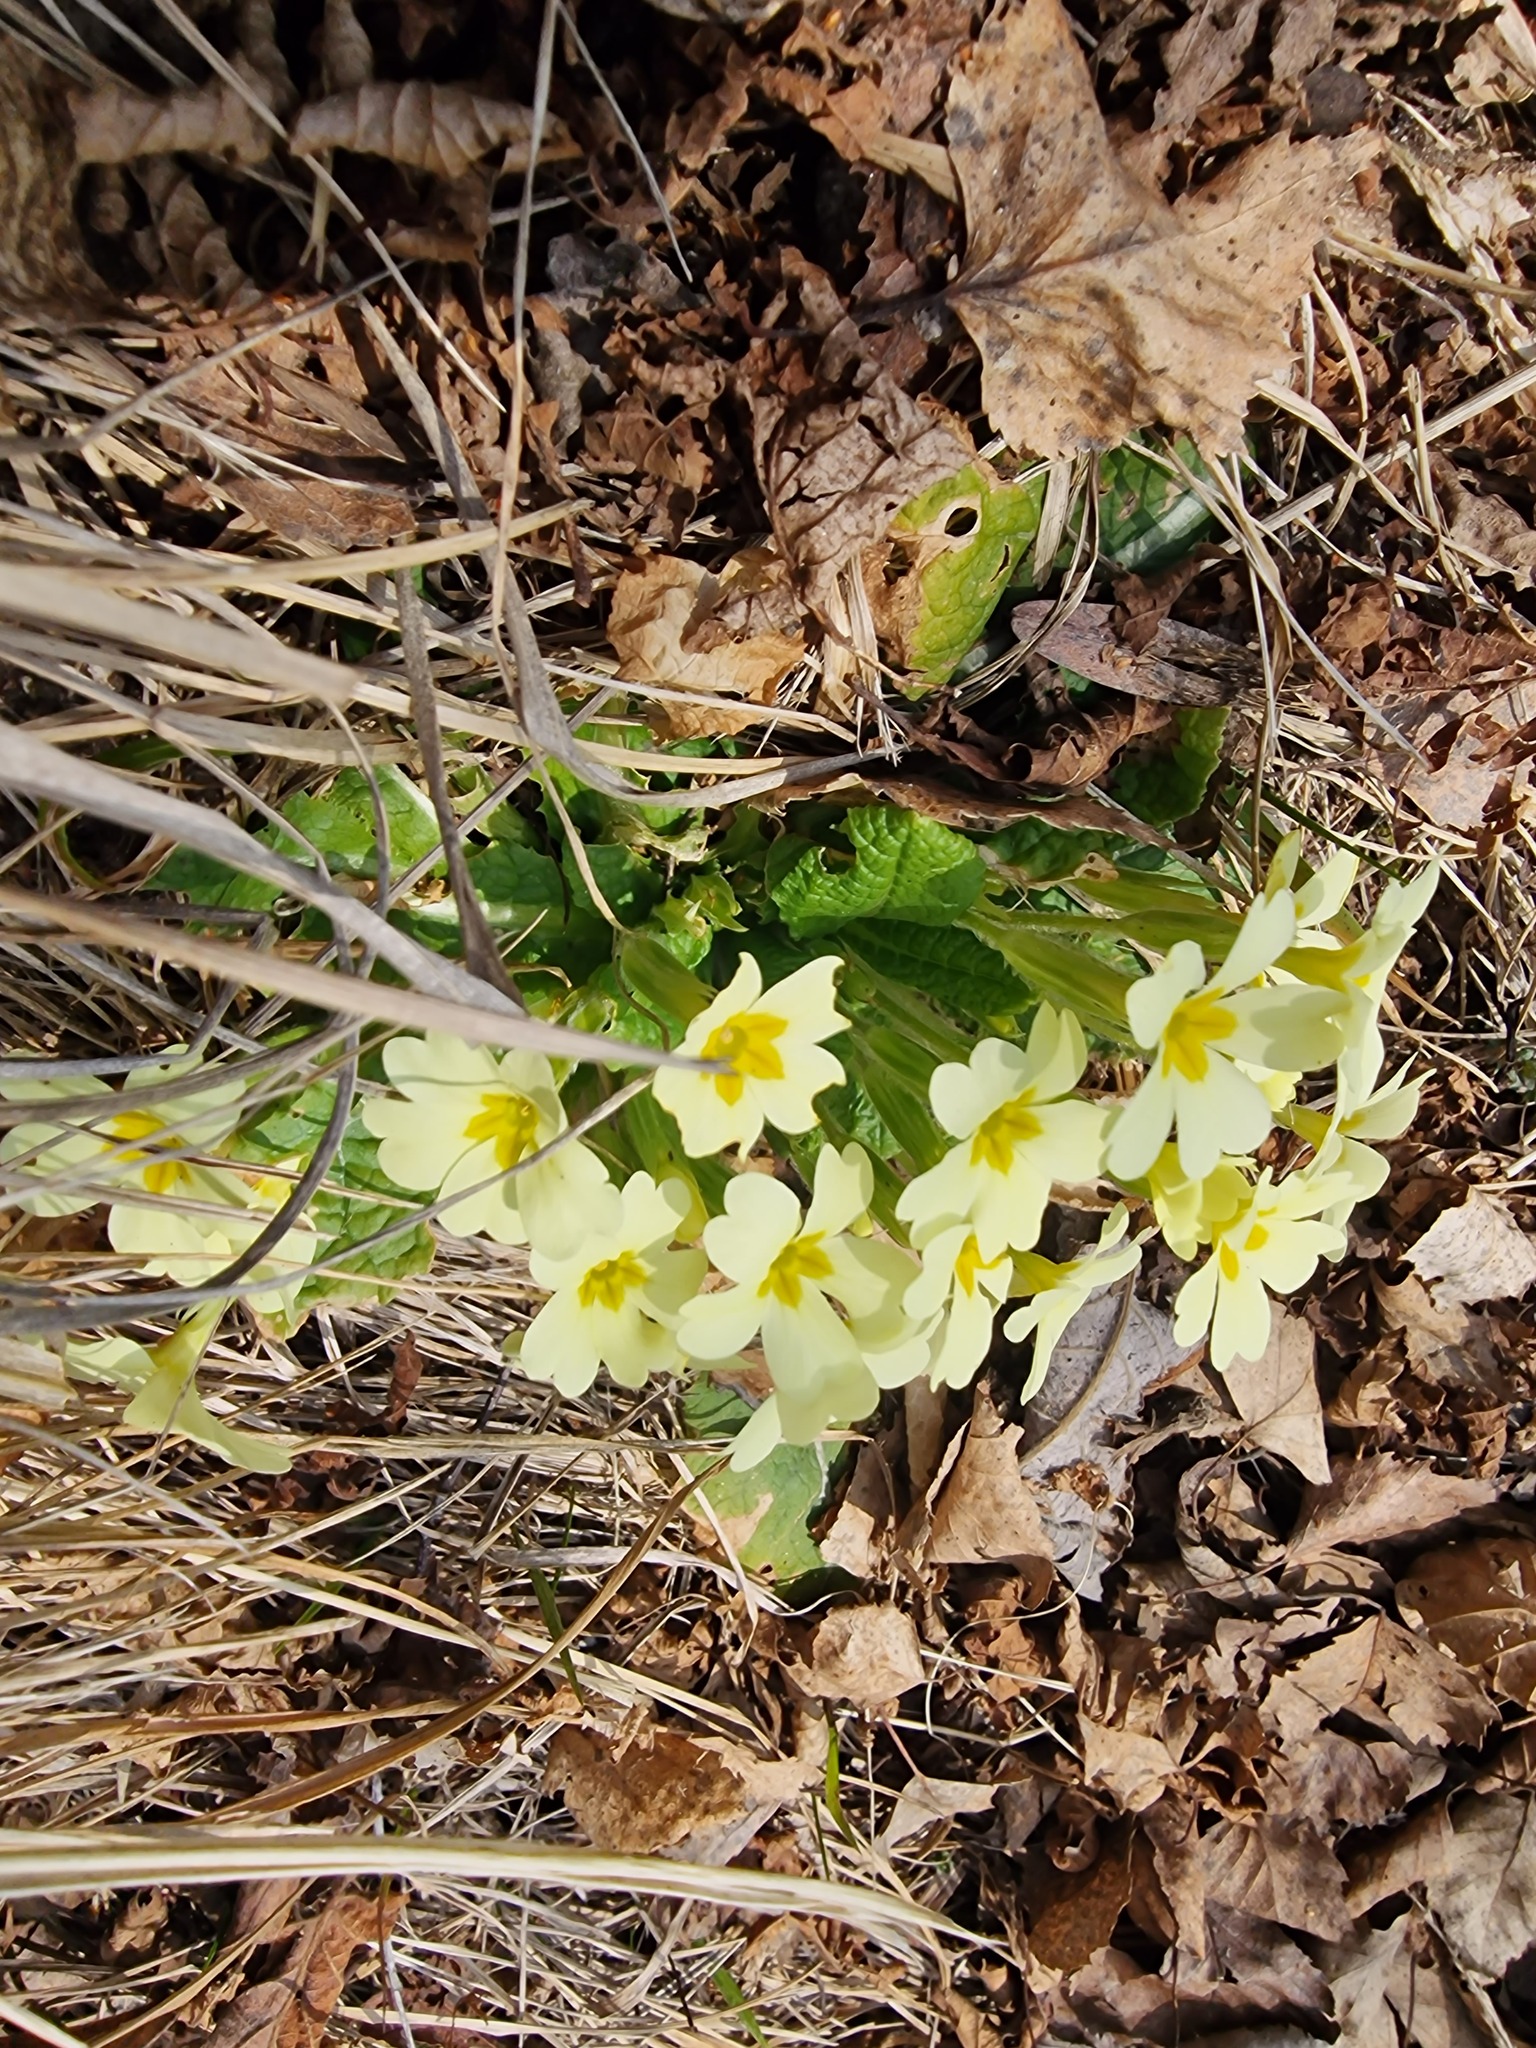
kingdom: Plantae
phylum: Tracheophyta
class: Magnoliopsida
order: Ericales
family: Primulaceae
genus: Primula
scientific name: Primula vulgaris
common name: Primrose
